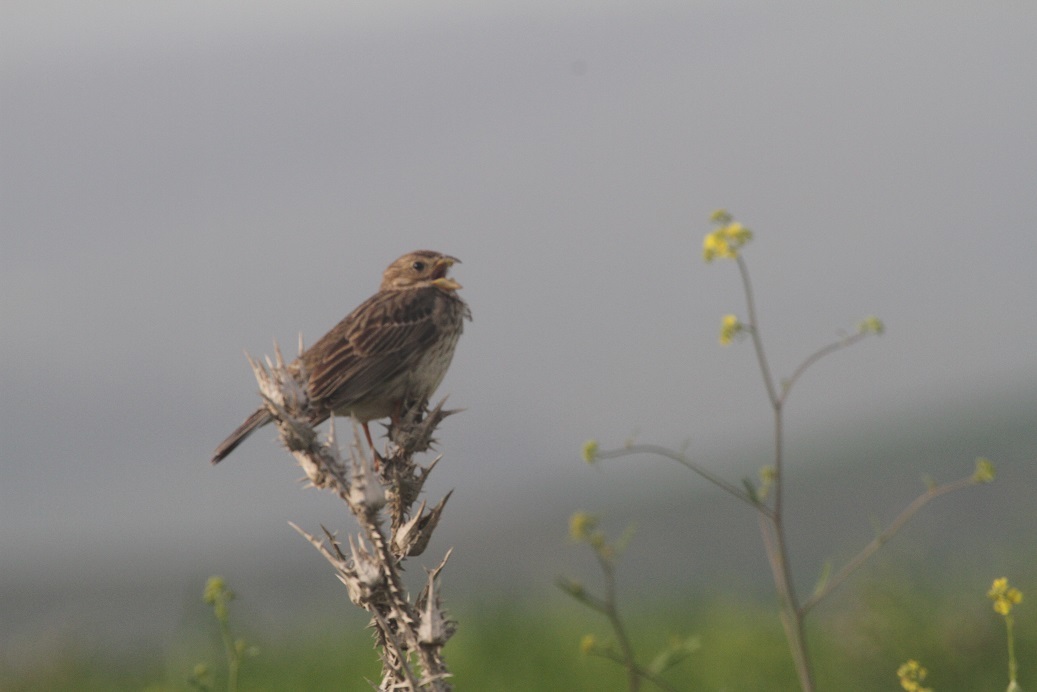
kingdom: Animalia
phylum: Chordata
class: Aves
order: Passeriformes
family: Emberizidae
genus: Emberiza
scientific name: Emberiza calandra
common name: Corn bunting
